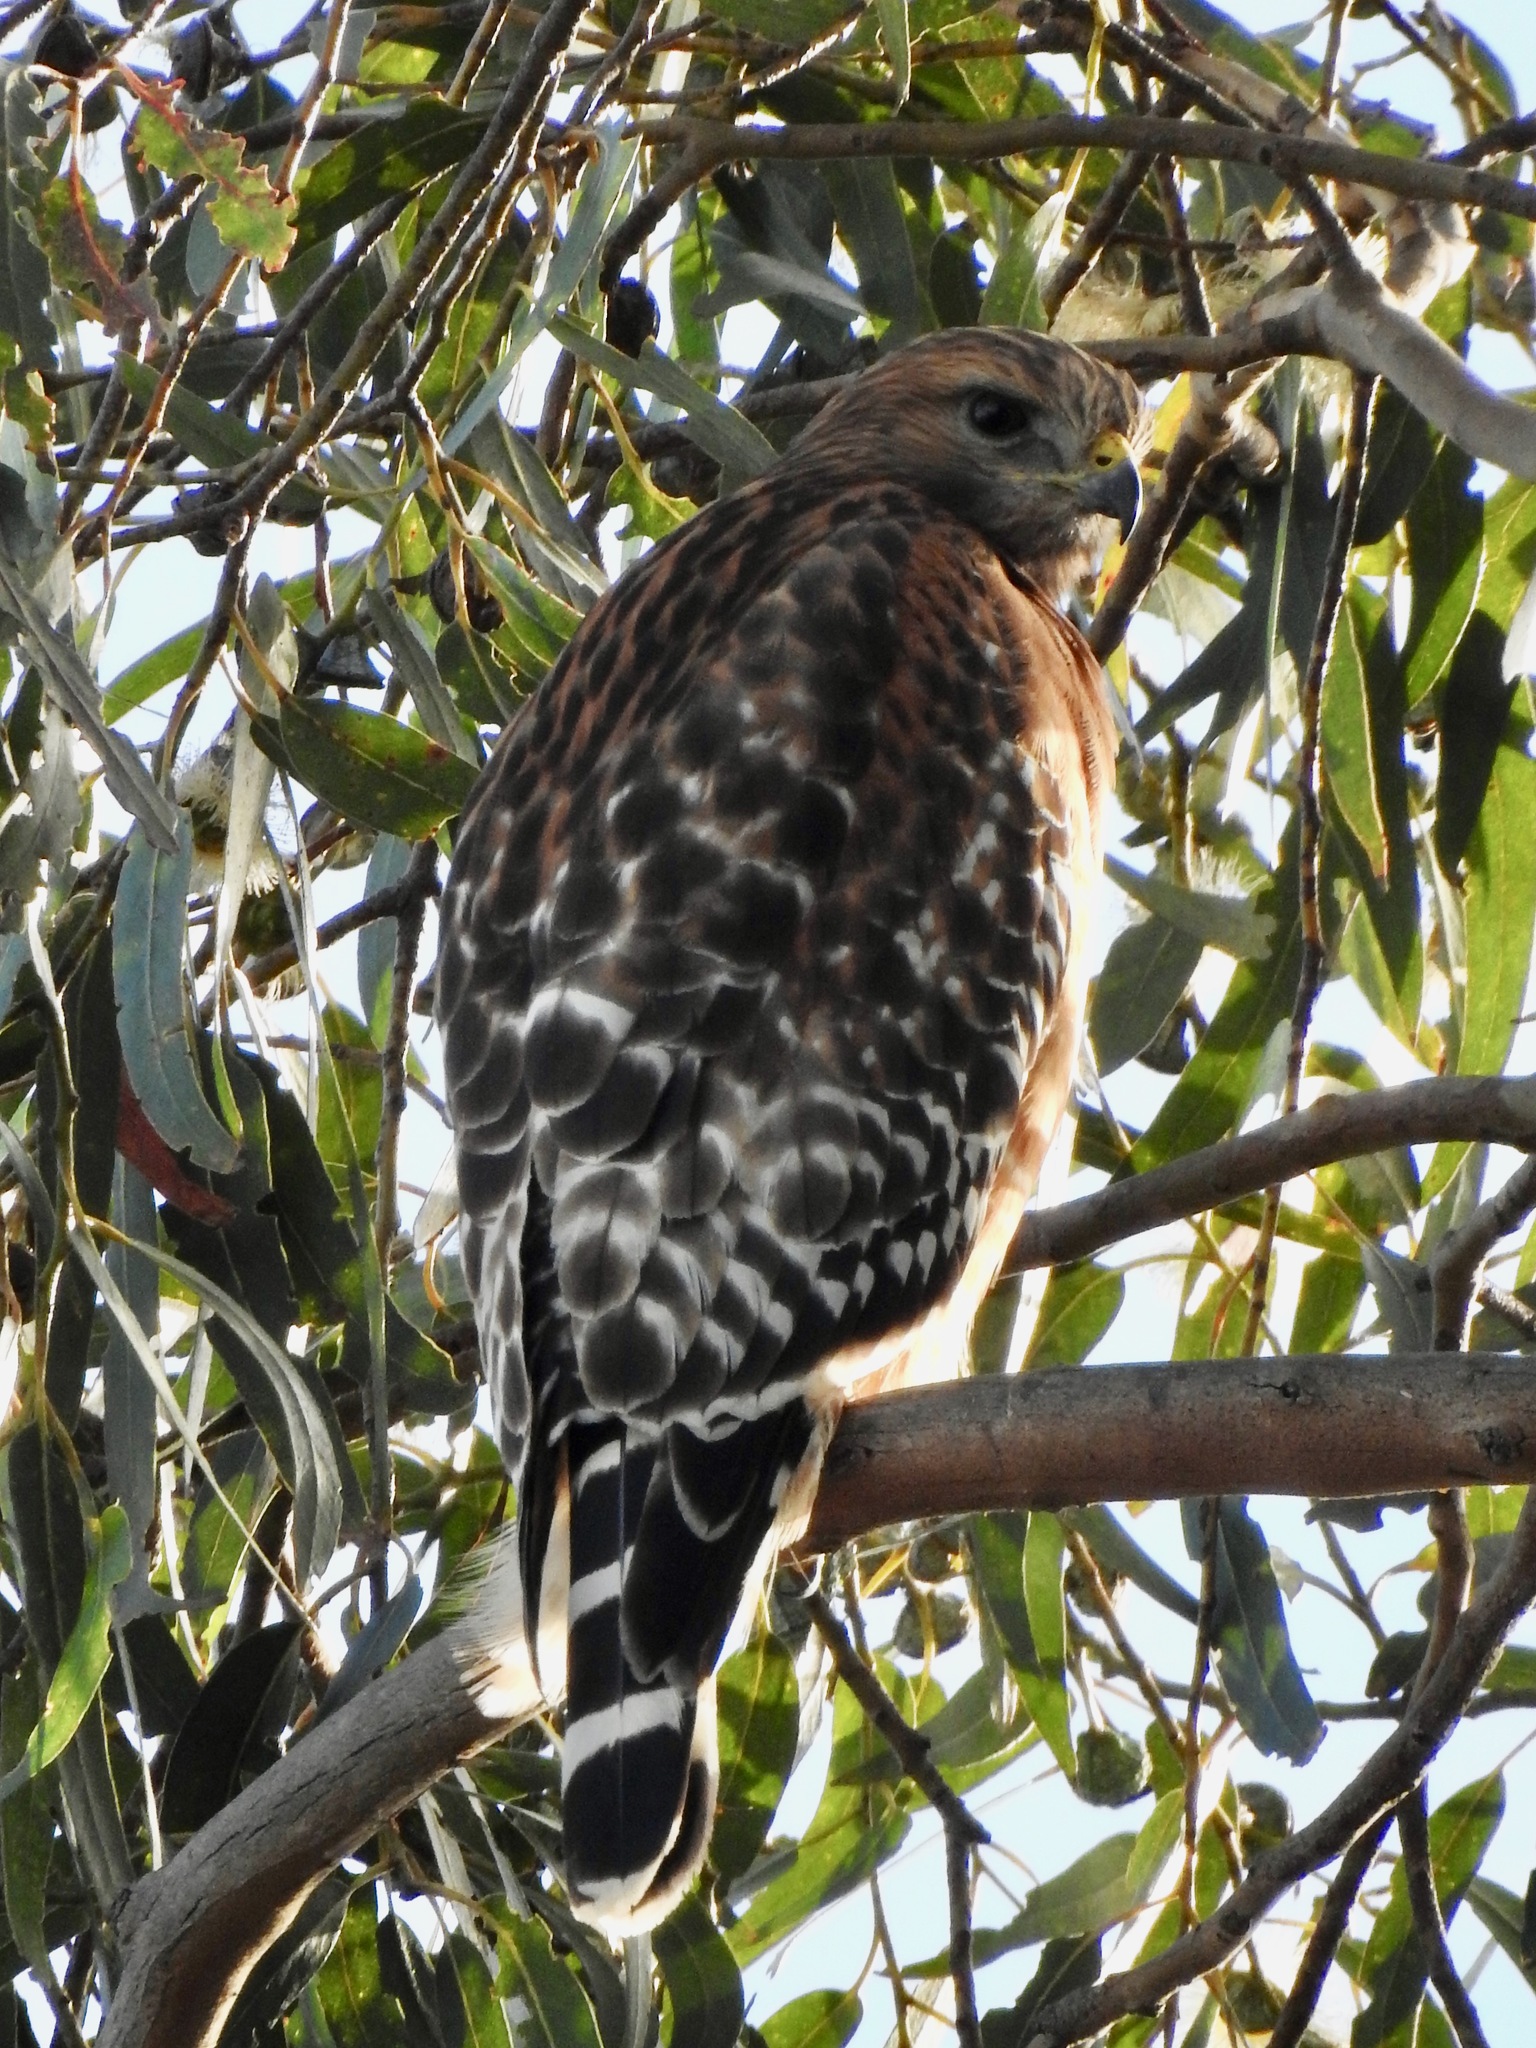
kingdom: Animalia
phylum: Chordata
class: Aves
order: Accipitriformes
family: Accipitridae
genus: Buteo
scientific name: Buteo lineatus
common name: Red-shouldered hawk
